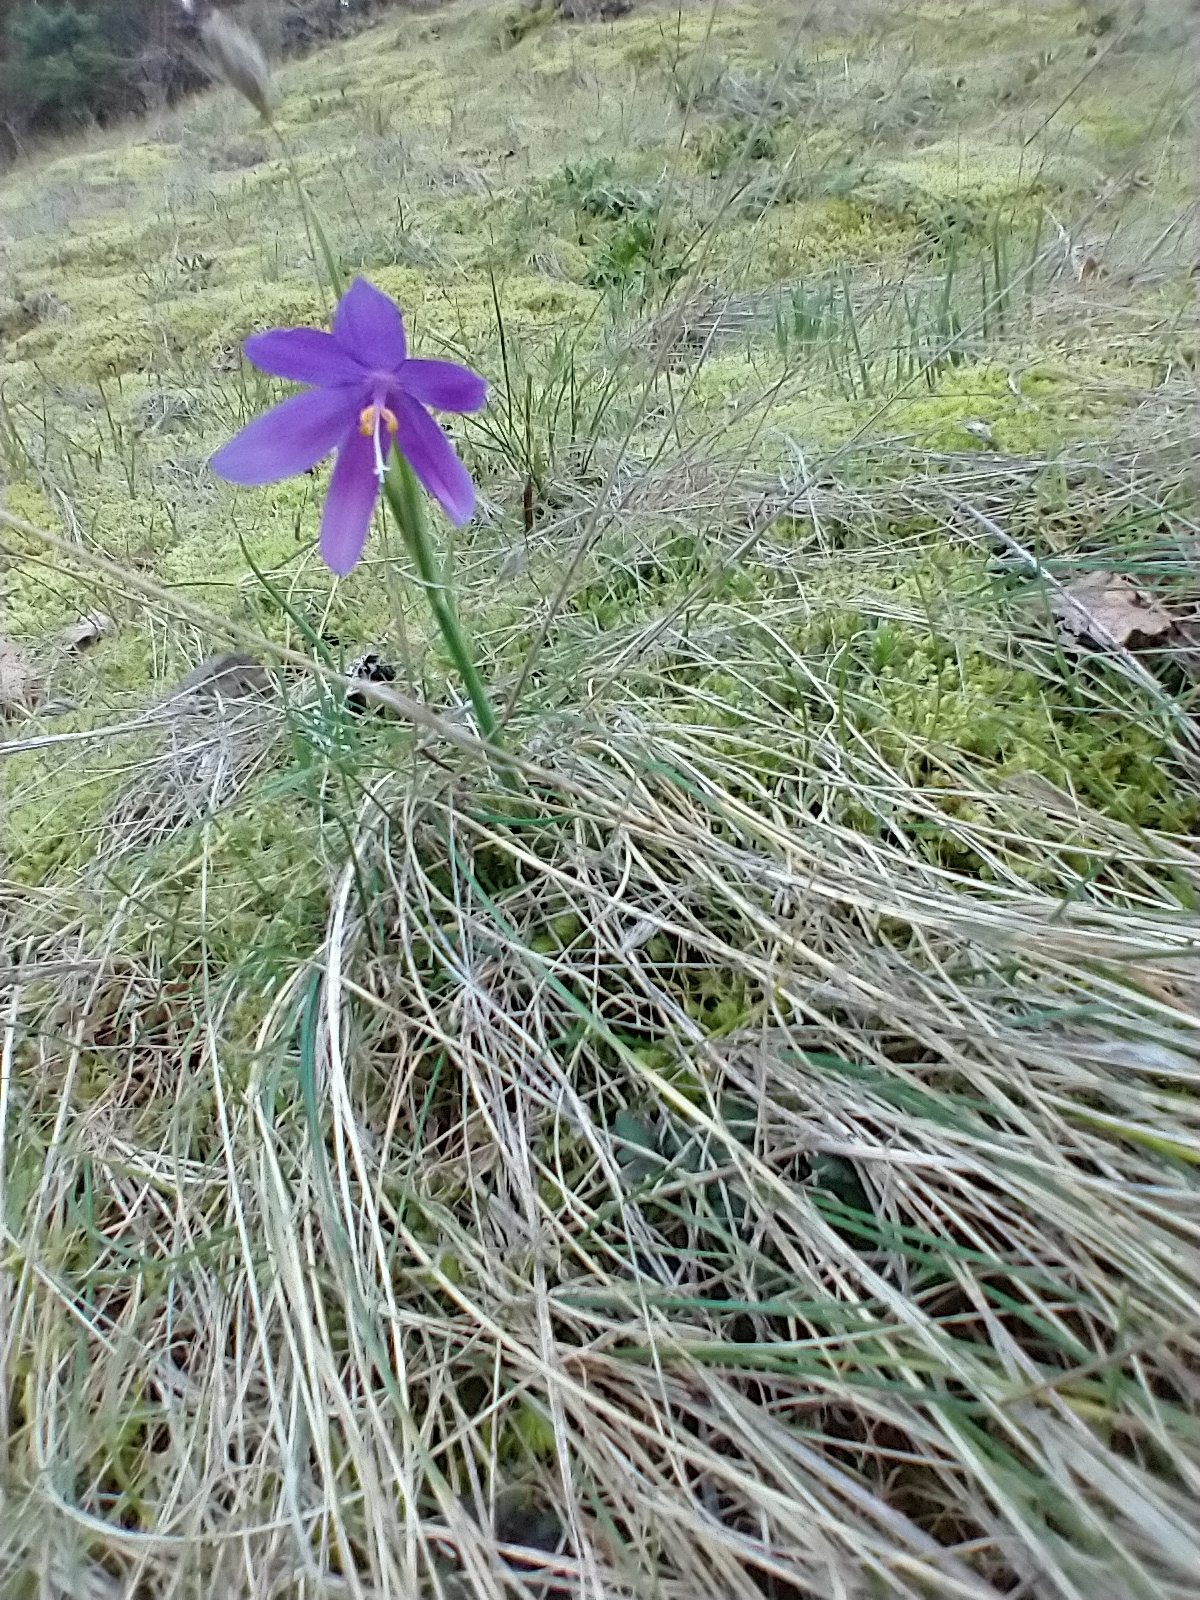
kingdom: Plantae
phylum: Tracheophyta
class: Liliopsida
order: Asparagales
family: Iridaceae
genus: Olsynium
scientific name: Olsynium douglasii
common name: Douglas' grasswidow
